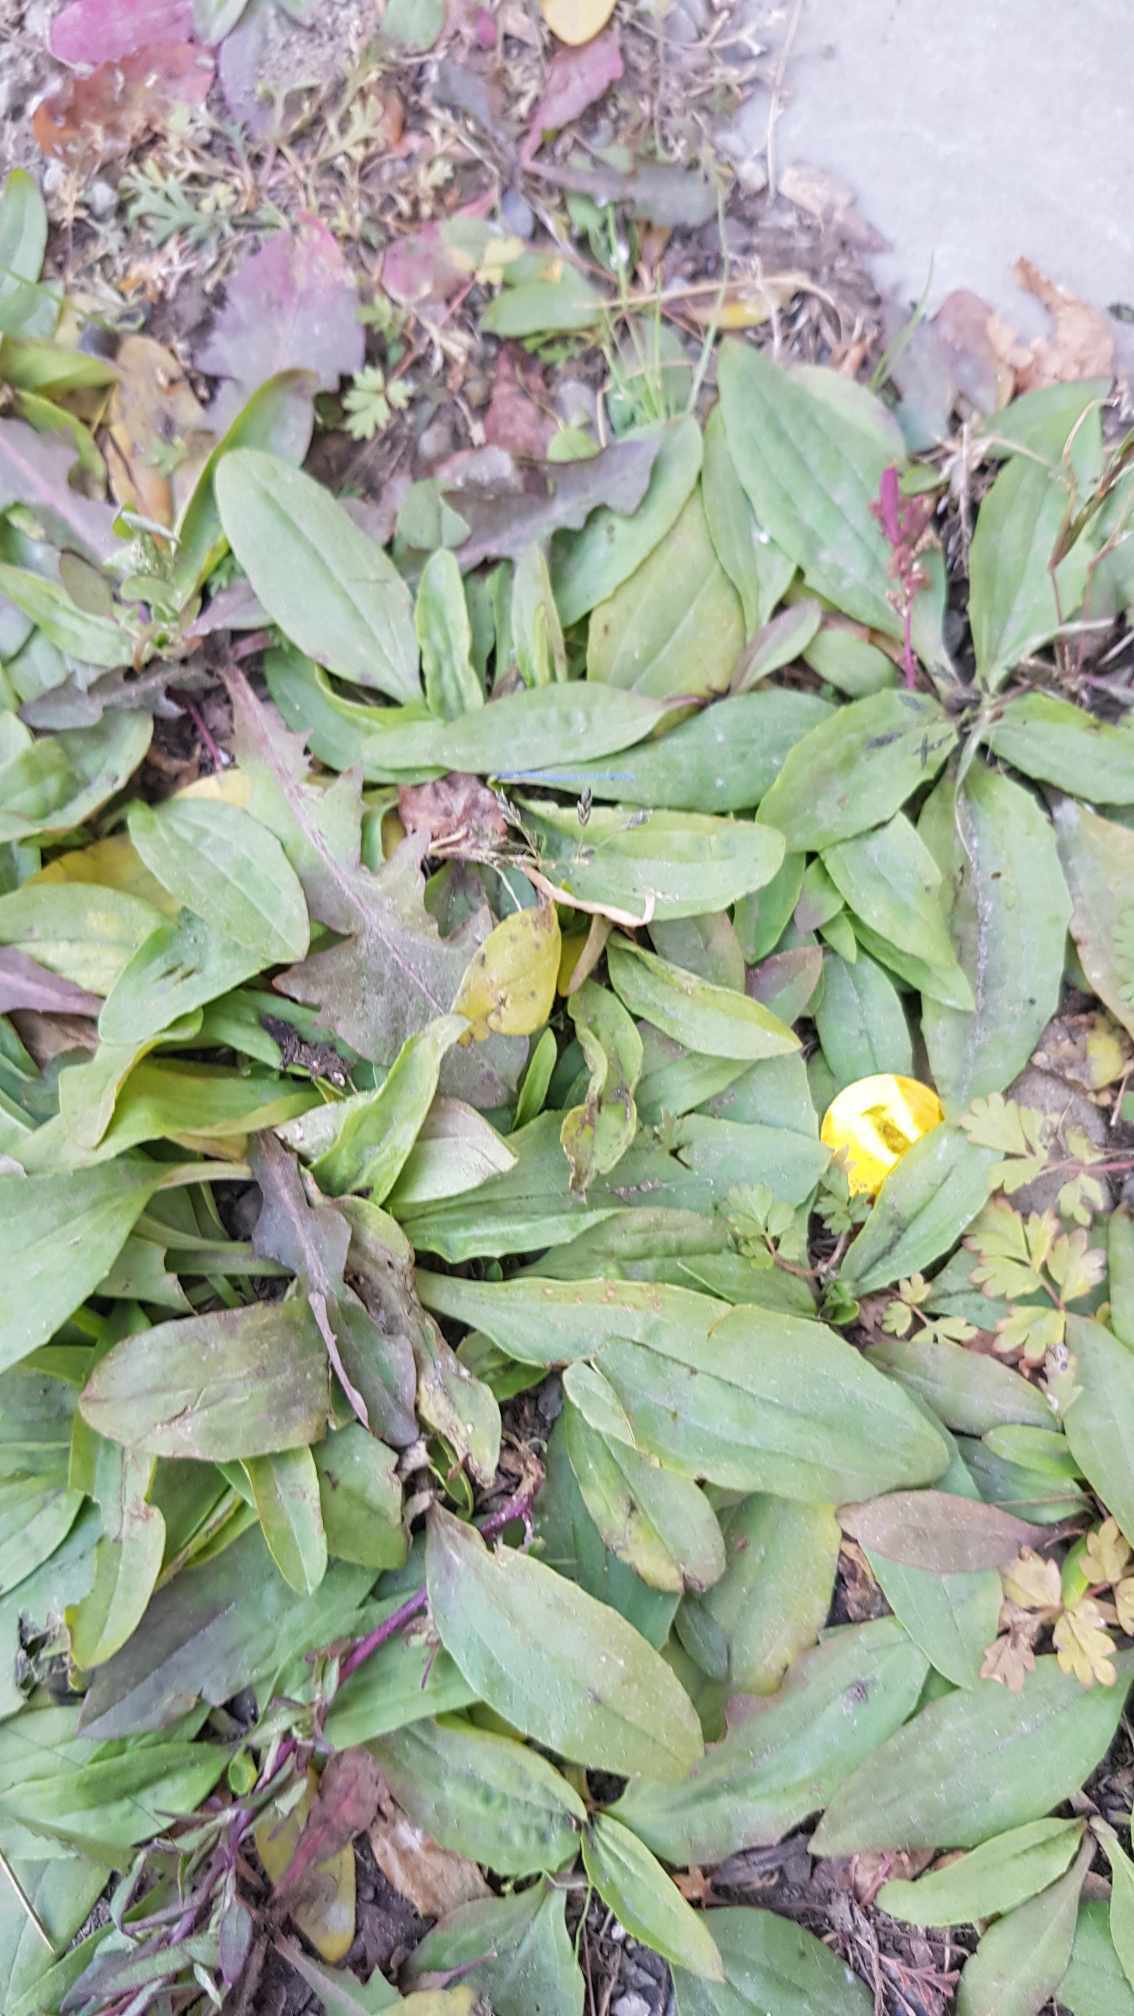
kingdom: Plantae
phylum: Tracheophyta
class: Magnoliopsida
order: Lamiales
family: Plantaginaceae
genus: Plantago
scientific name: Plantago depressa
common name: Depressed plantain
